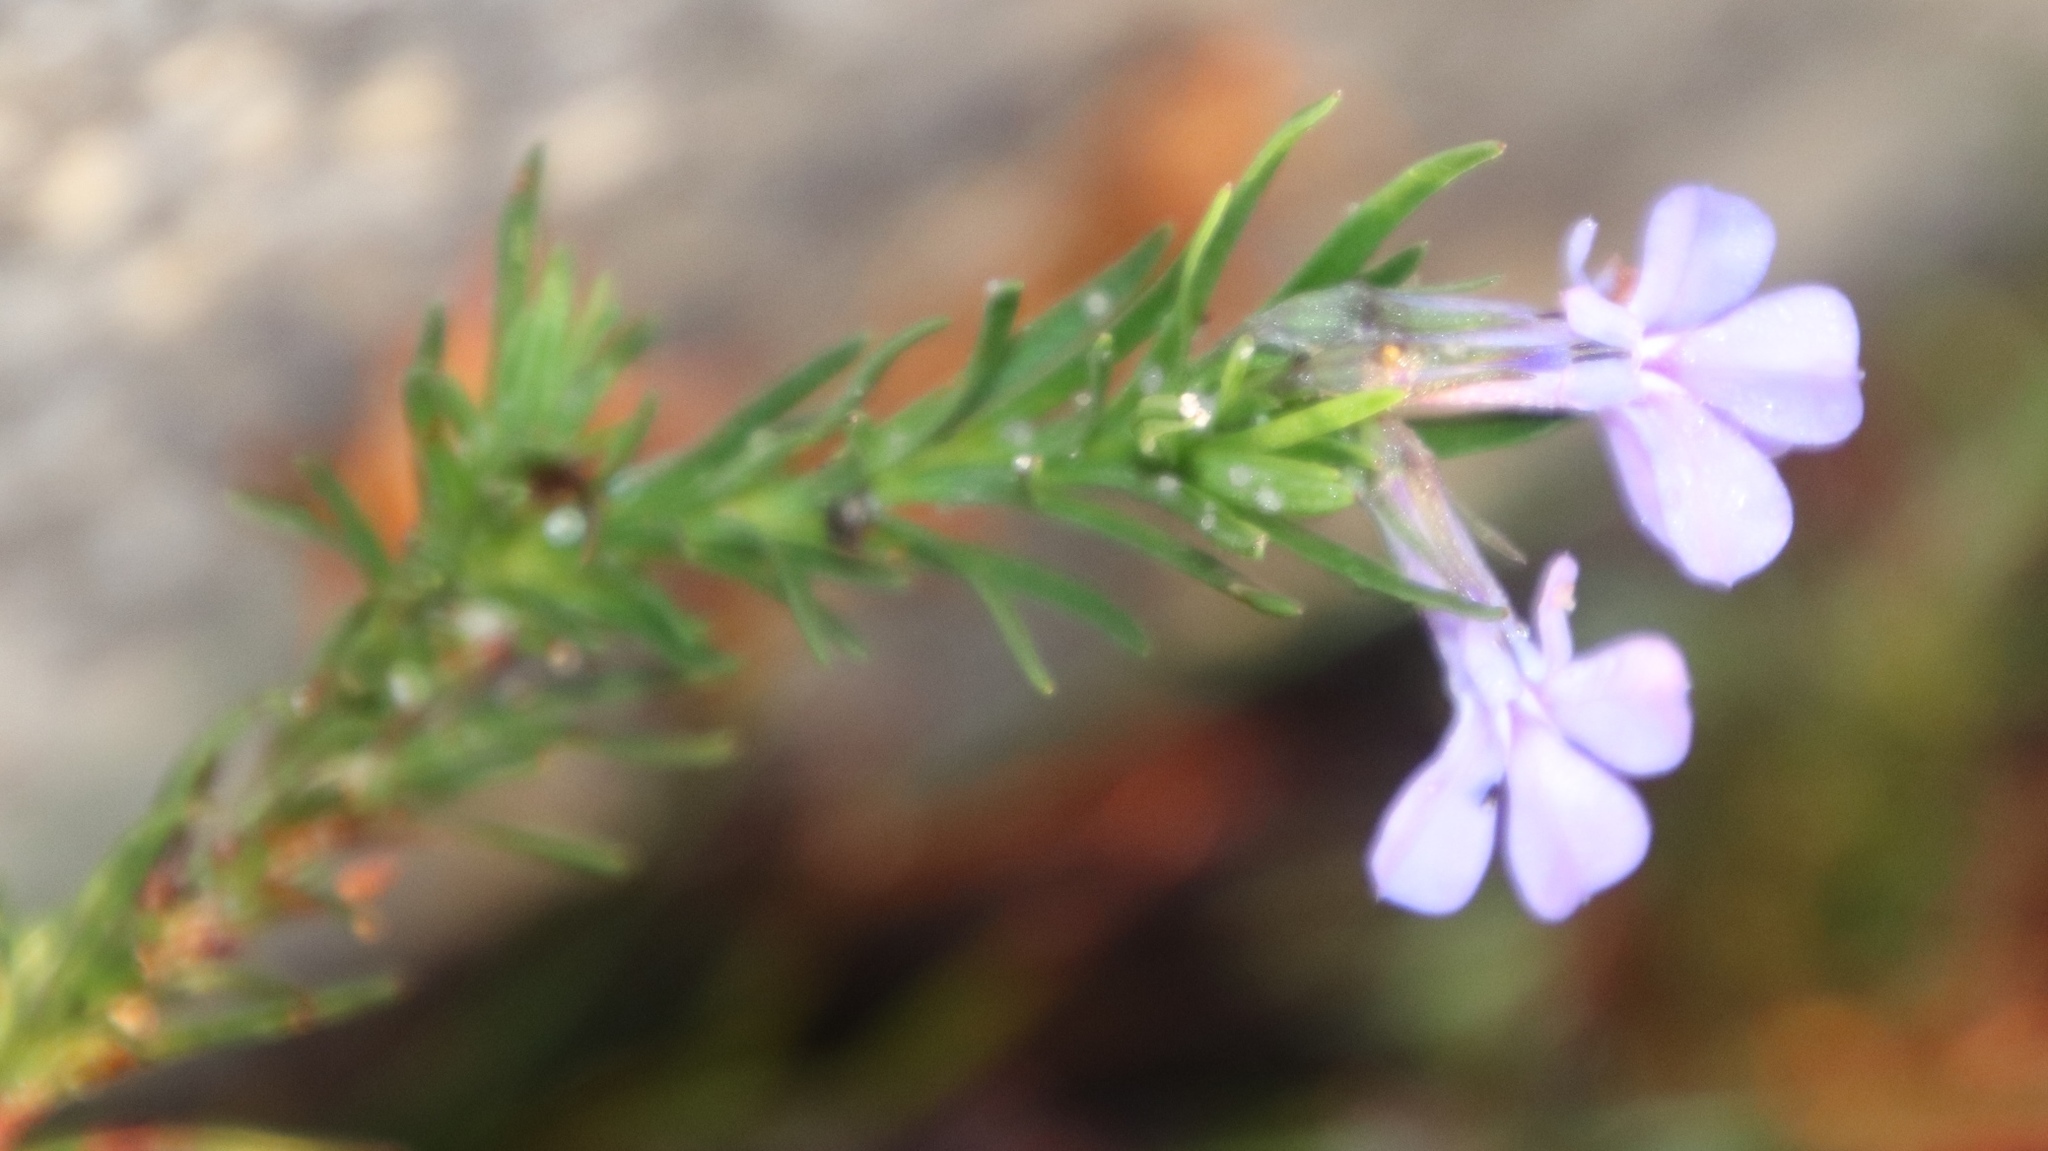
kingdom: Plantae
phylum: Tracheophyta
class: Magnoliopsida
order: Asterales
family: Campanulaceae
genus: Lobelia
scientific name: Lobelia pinifolia
